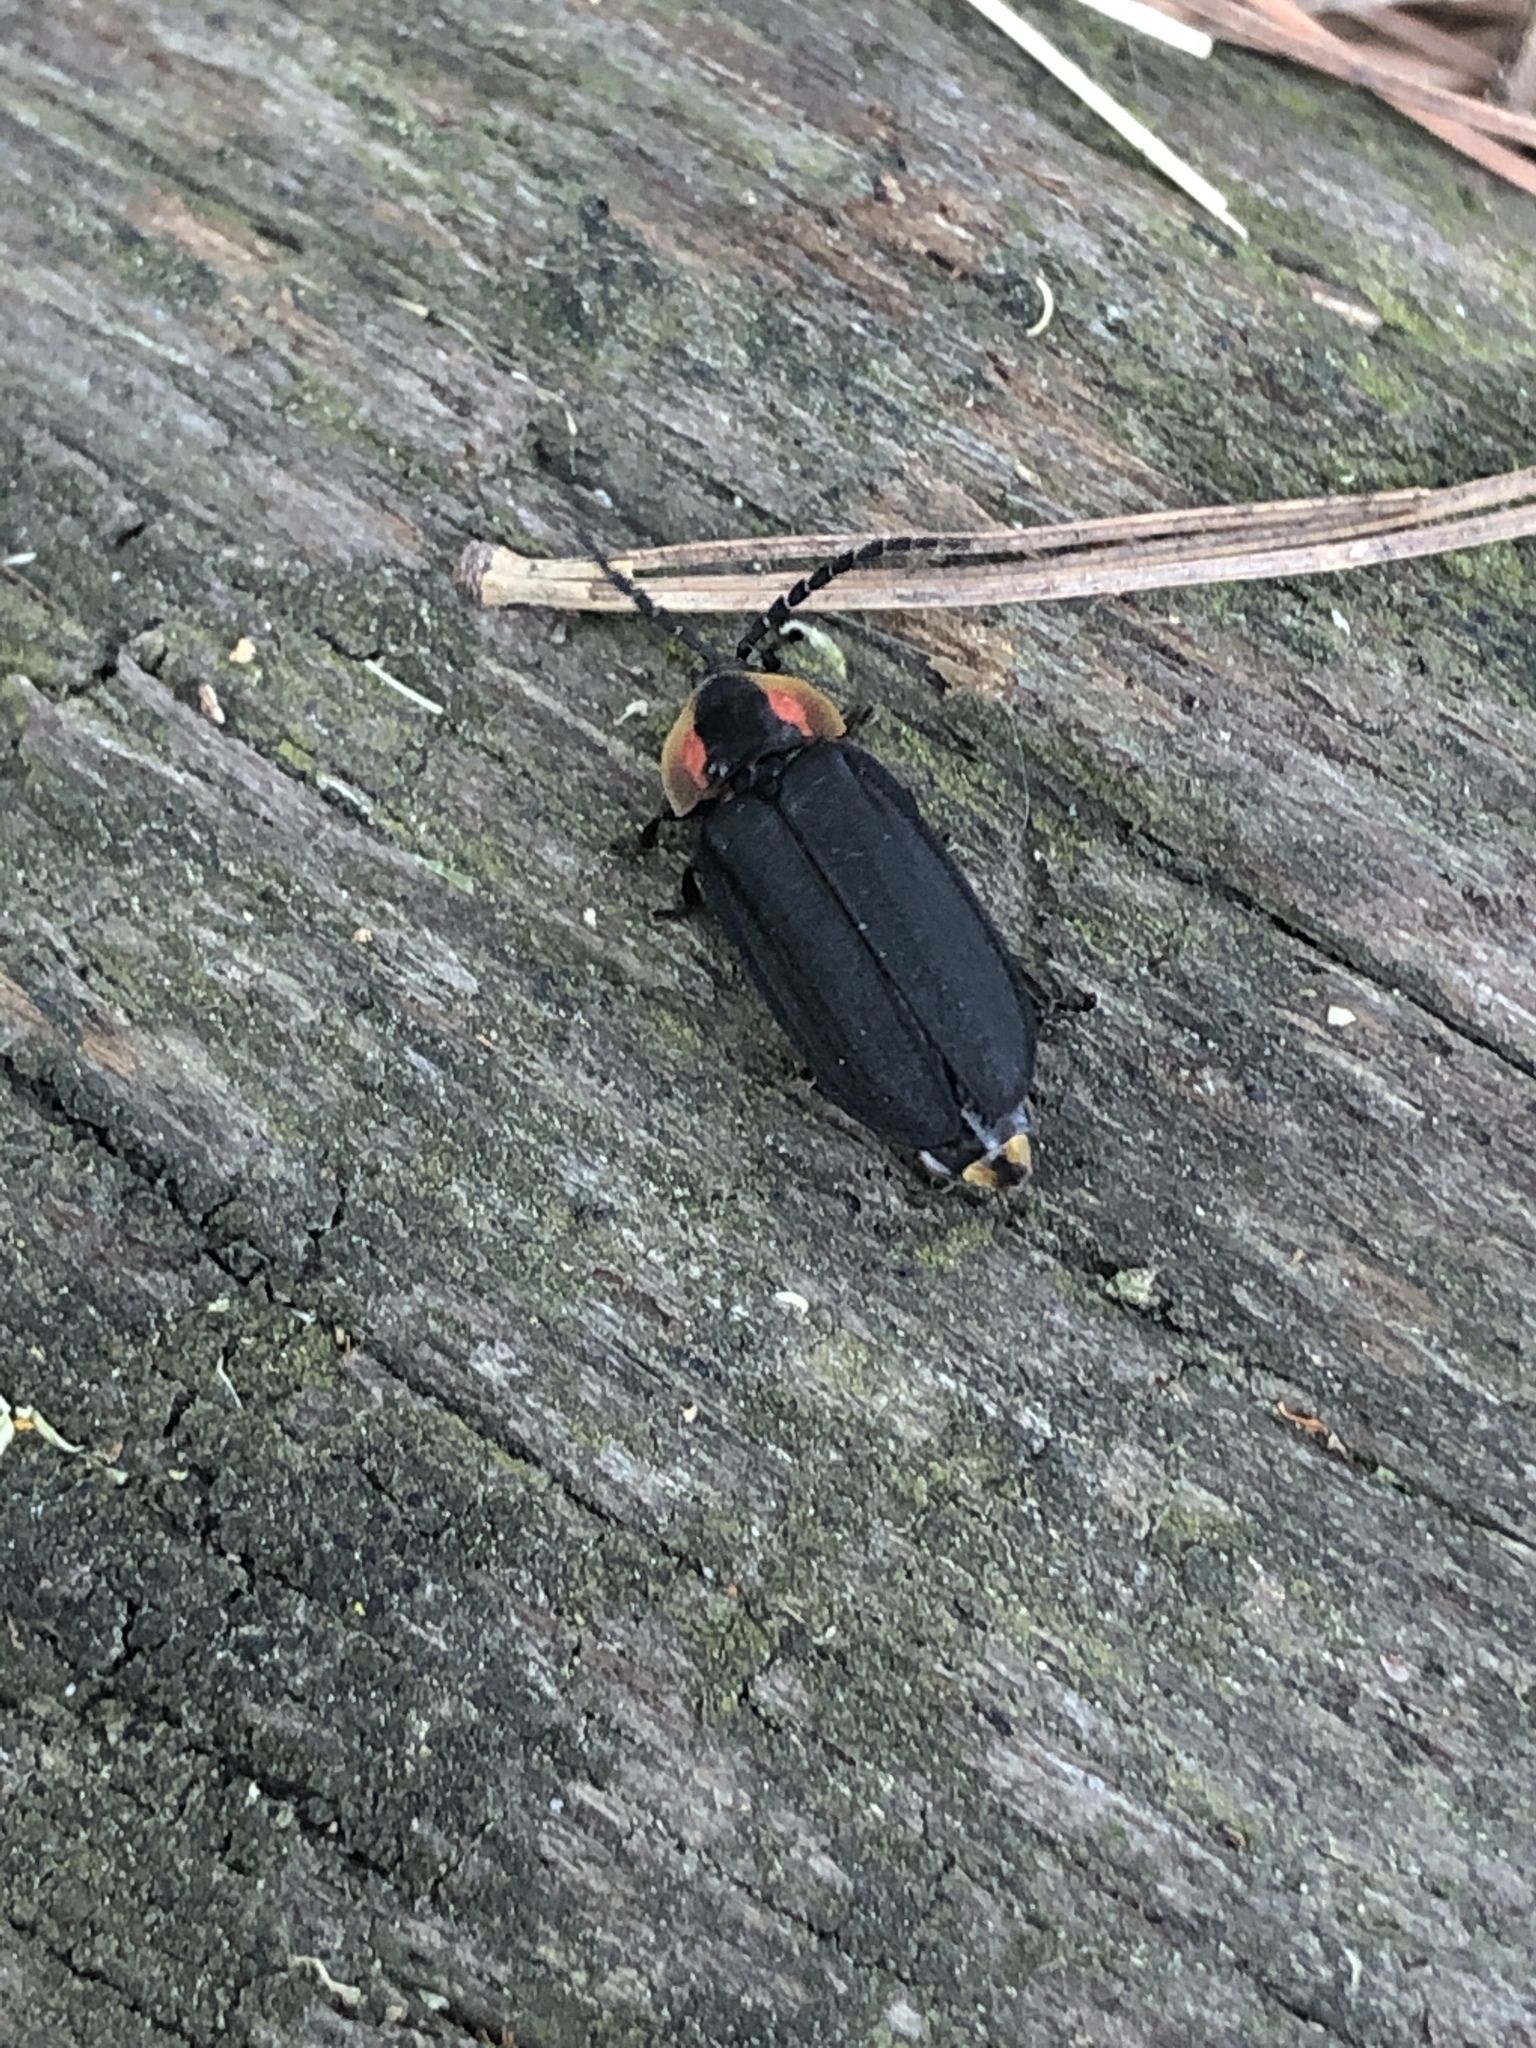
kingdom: Animalia
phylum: Arthropoda
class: Insecta
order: Coleoptera
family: Lampyridae
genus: Lucidota
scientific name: Lucidota atra
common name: Black firefly
